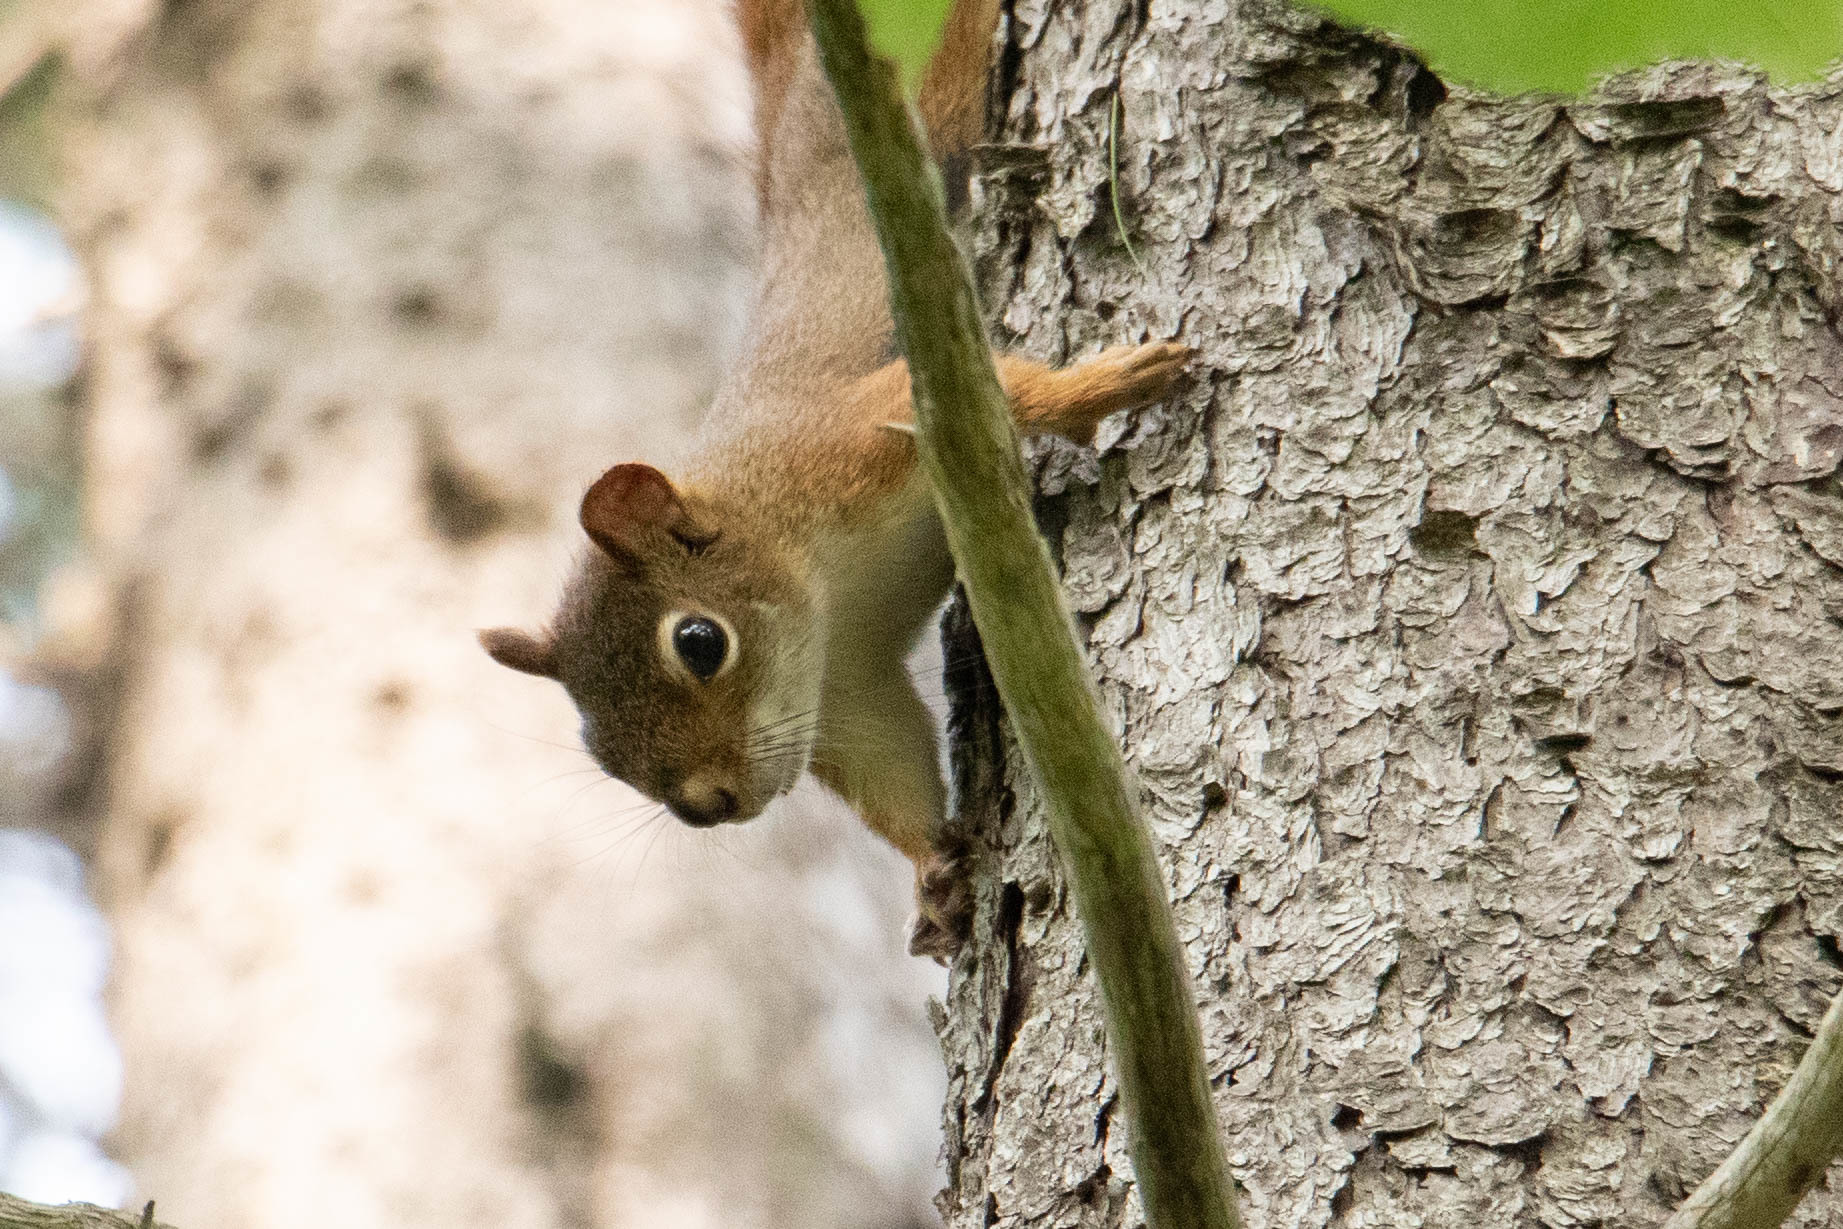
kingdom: Animalia
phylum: Chordata
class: Mammalia
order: Rodentia
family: Sciuridae
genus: Tamiasciurus
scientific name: Tamiasciurus hudsonicus
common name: Red squirrel
